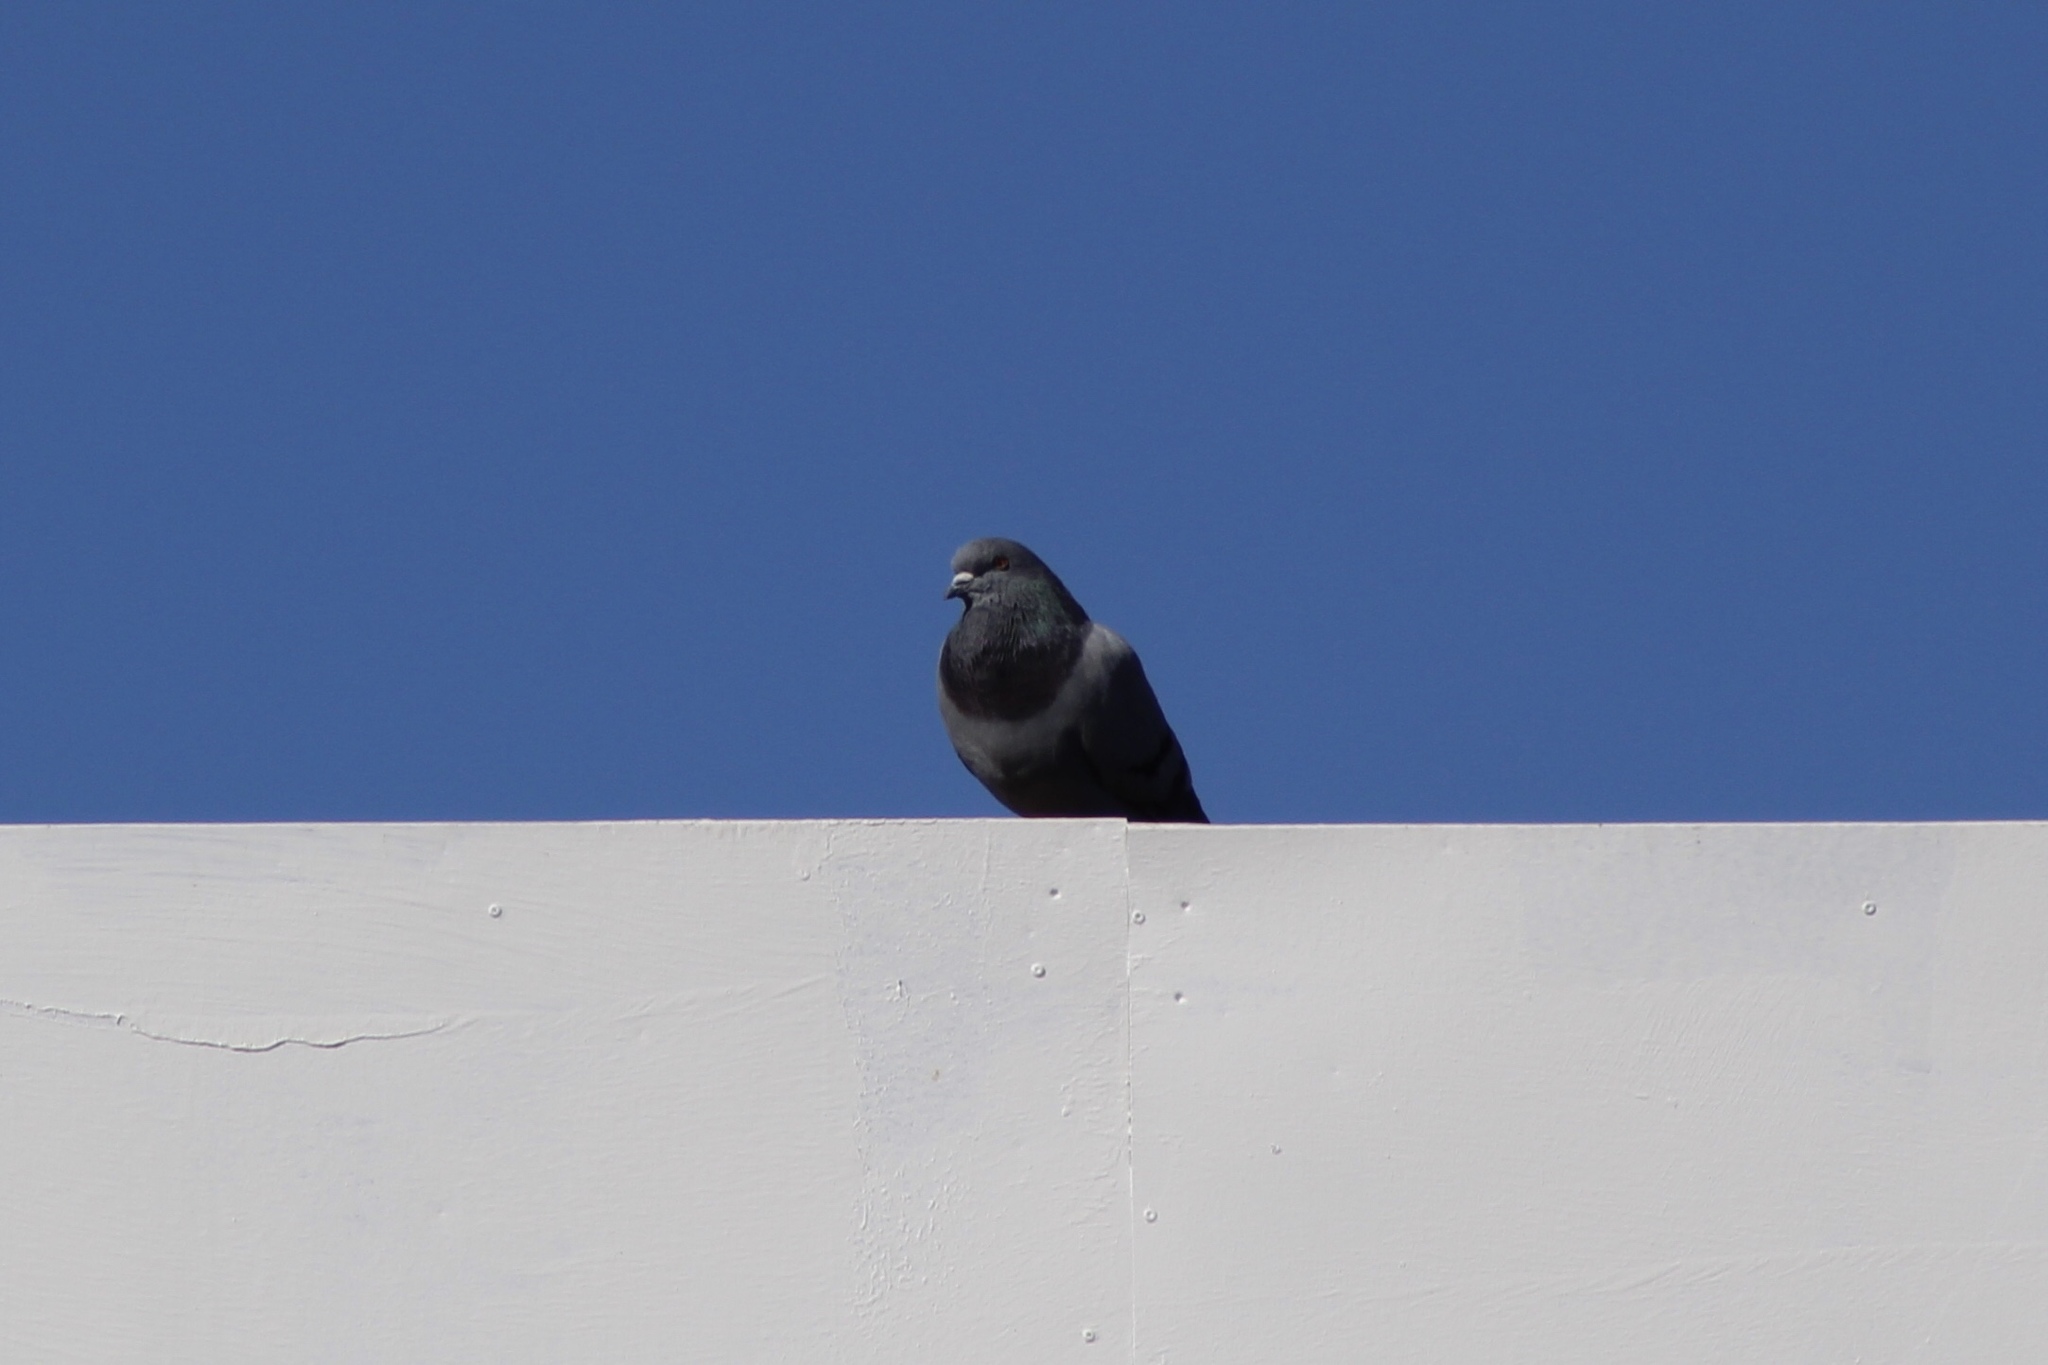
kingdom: Animalia
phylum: Chordata
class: Aves
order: Columbiformes
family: Columbidae
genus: Columba
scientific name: Columba livia
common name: Rock pigeon
